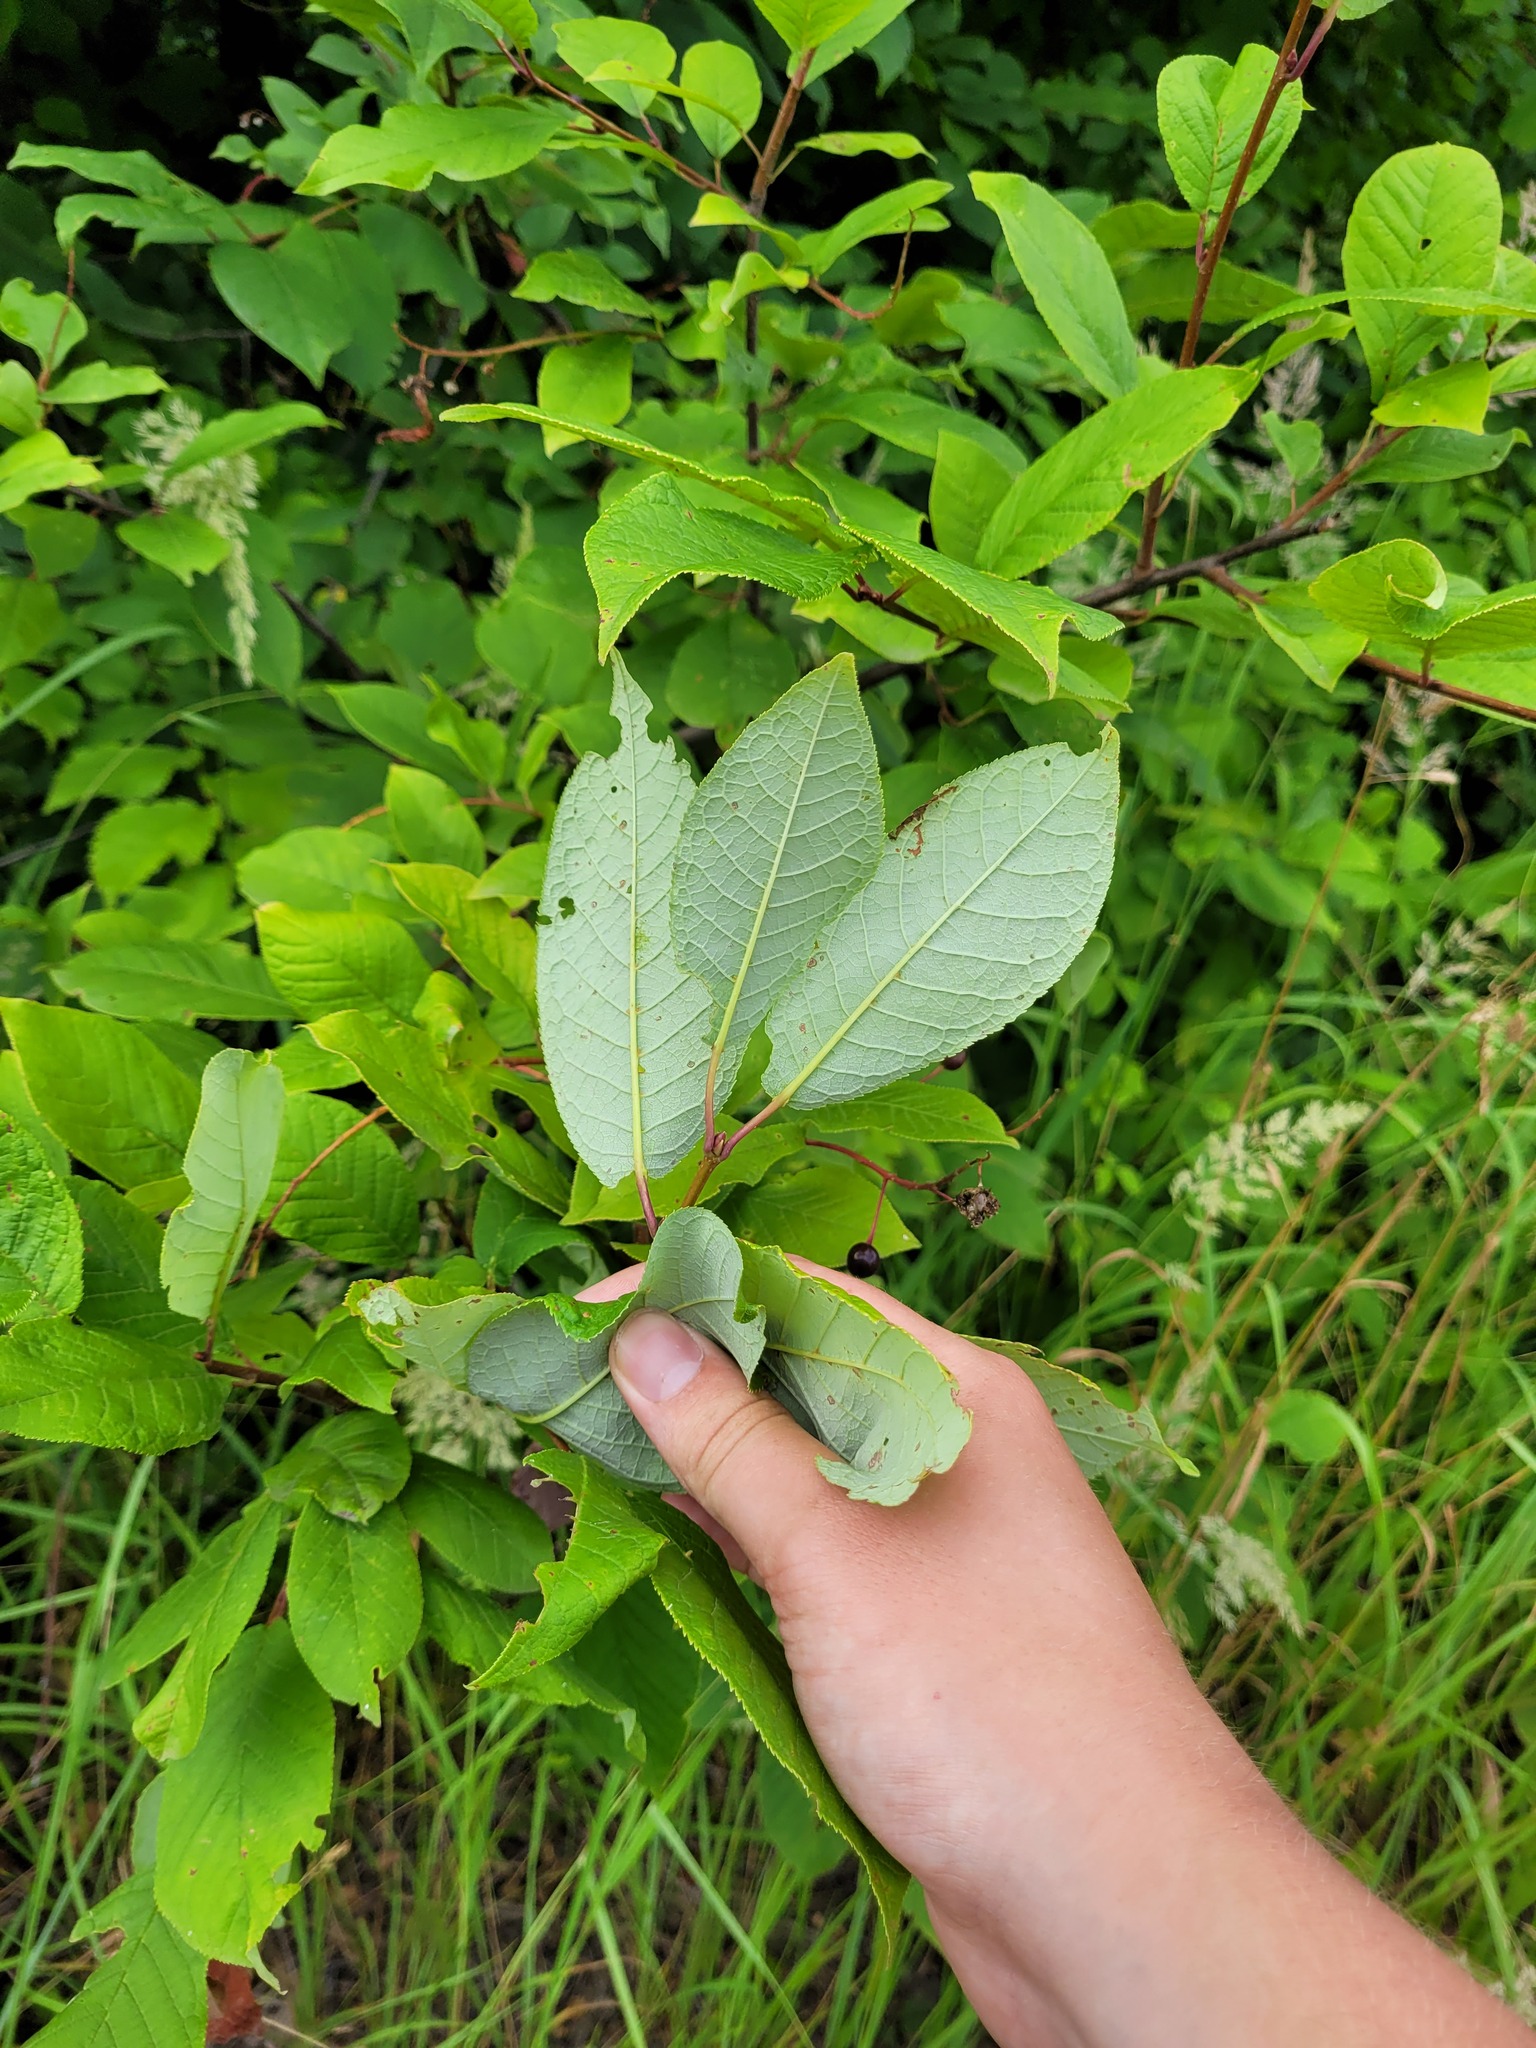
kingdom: Plantae
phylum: Tracheophyta
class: Magnoliopsida
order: Rosales
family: Rosaceae
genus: Prunus
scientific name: Prunus padus
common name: Bird cherry
